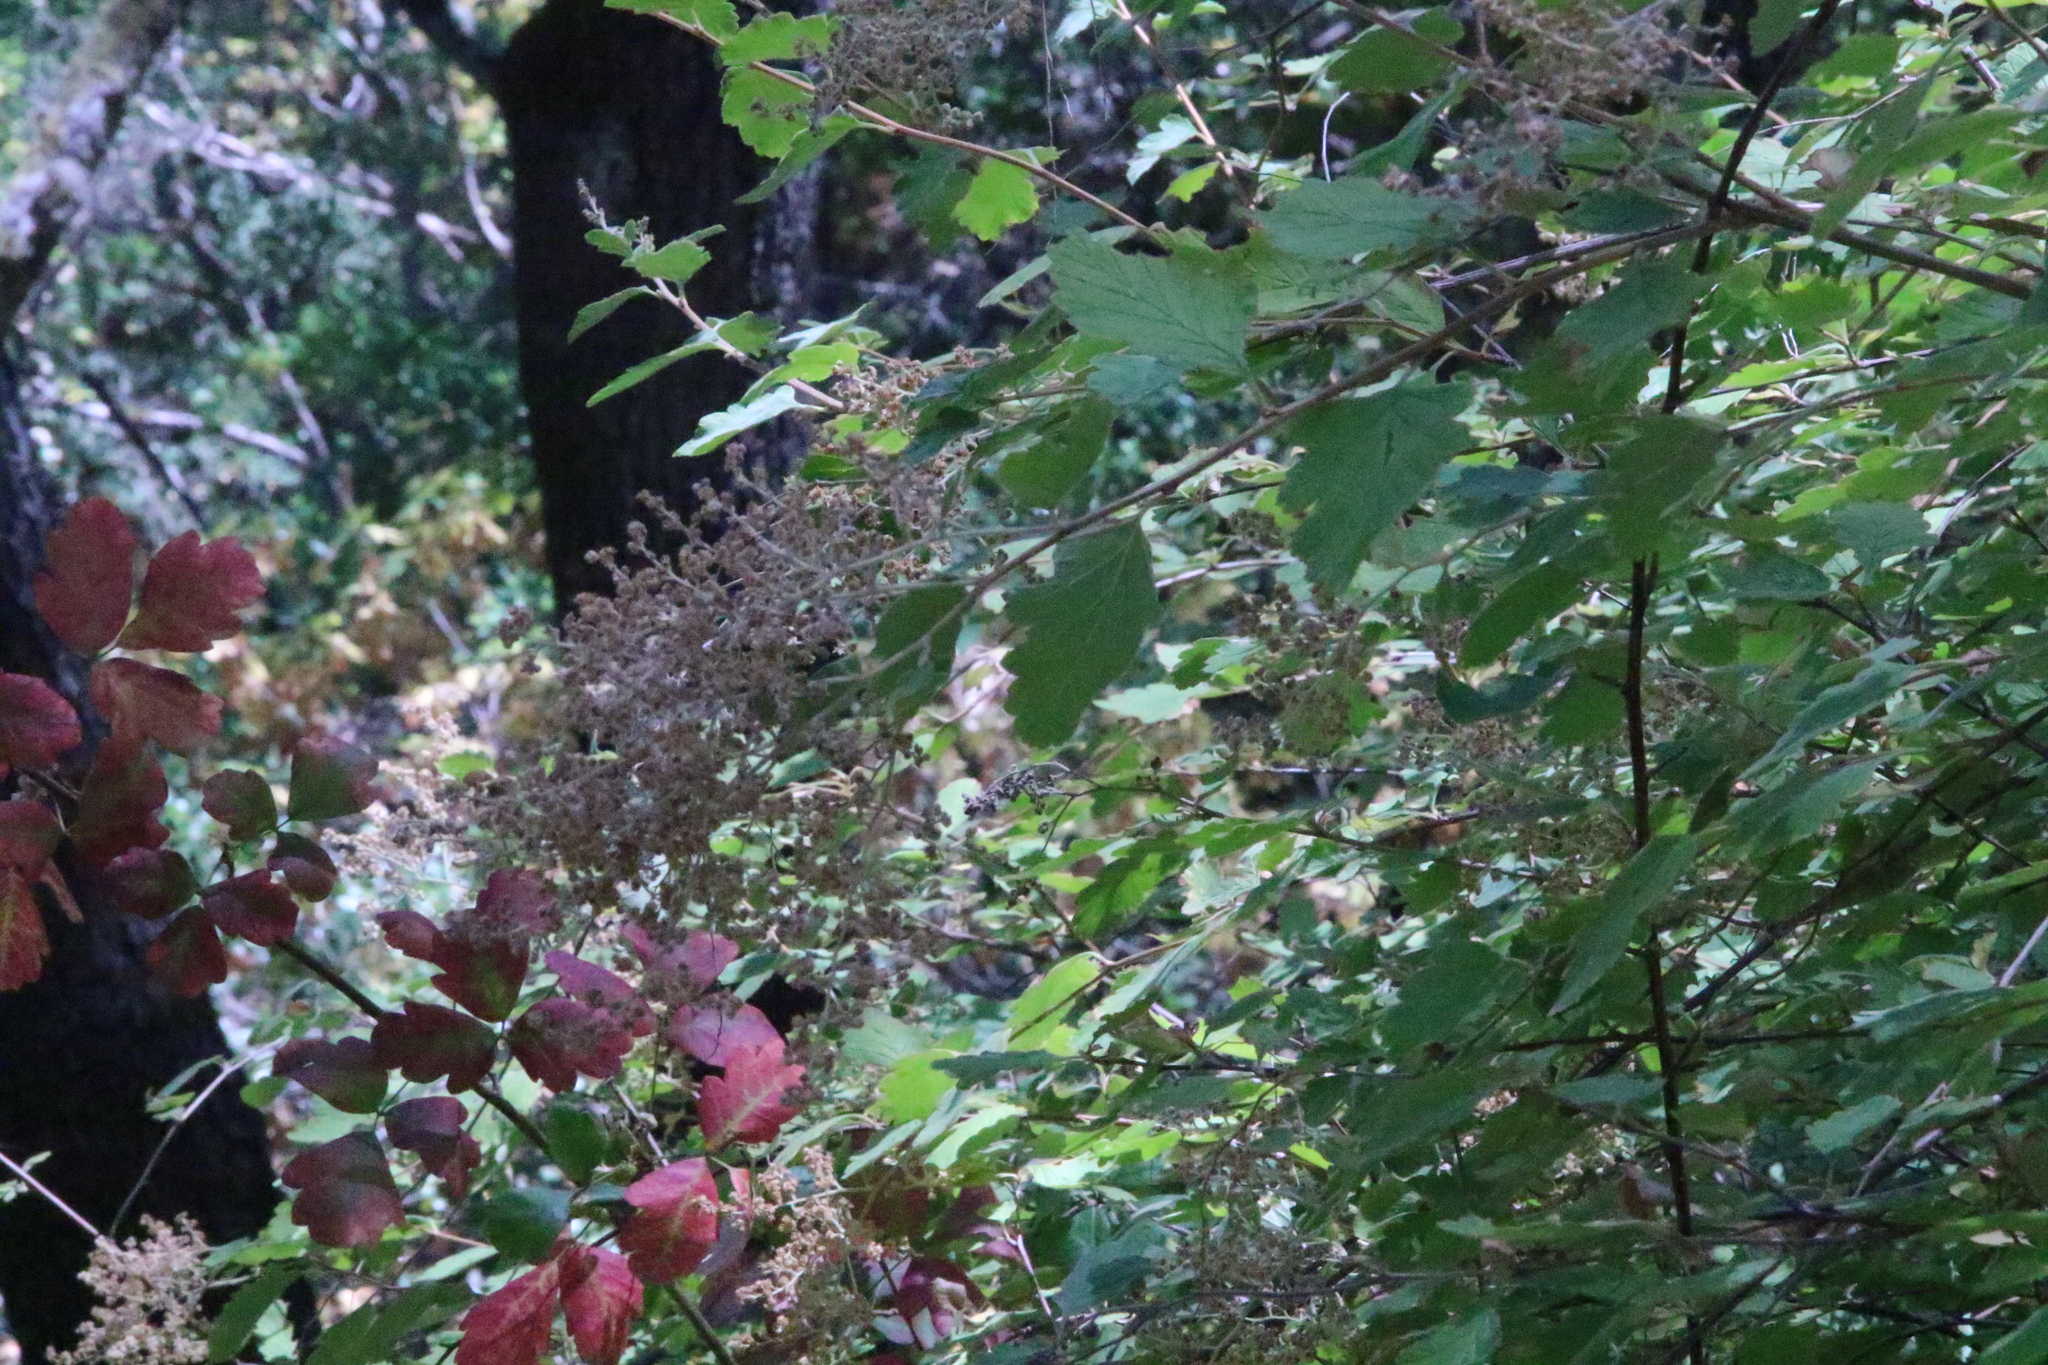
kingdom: Plantae
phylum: Tracheophyta
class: Magnoliopsida
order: Rosales
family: Rosaceae
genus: Holodiscus
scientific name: Holodiscus discolor
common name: Oceanspray
